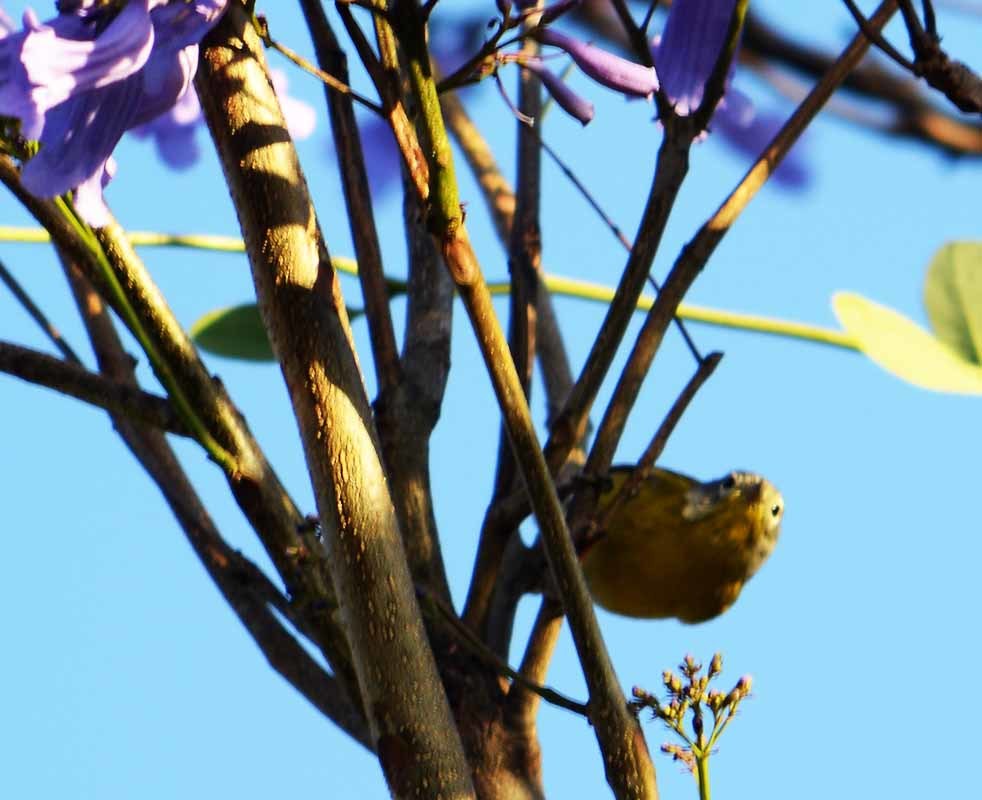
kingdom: Animalia
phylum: Chordata
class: Aves
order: Passeriformes
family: Parulidae
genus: Leiothlypis
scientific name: Leiothlypis ruficapilla
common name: Nashville warbler
